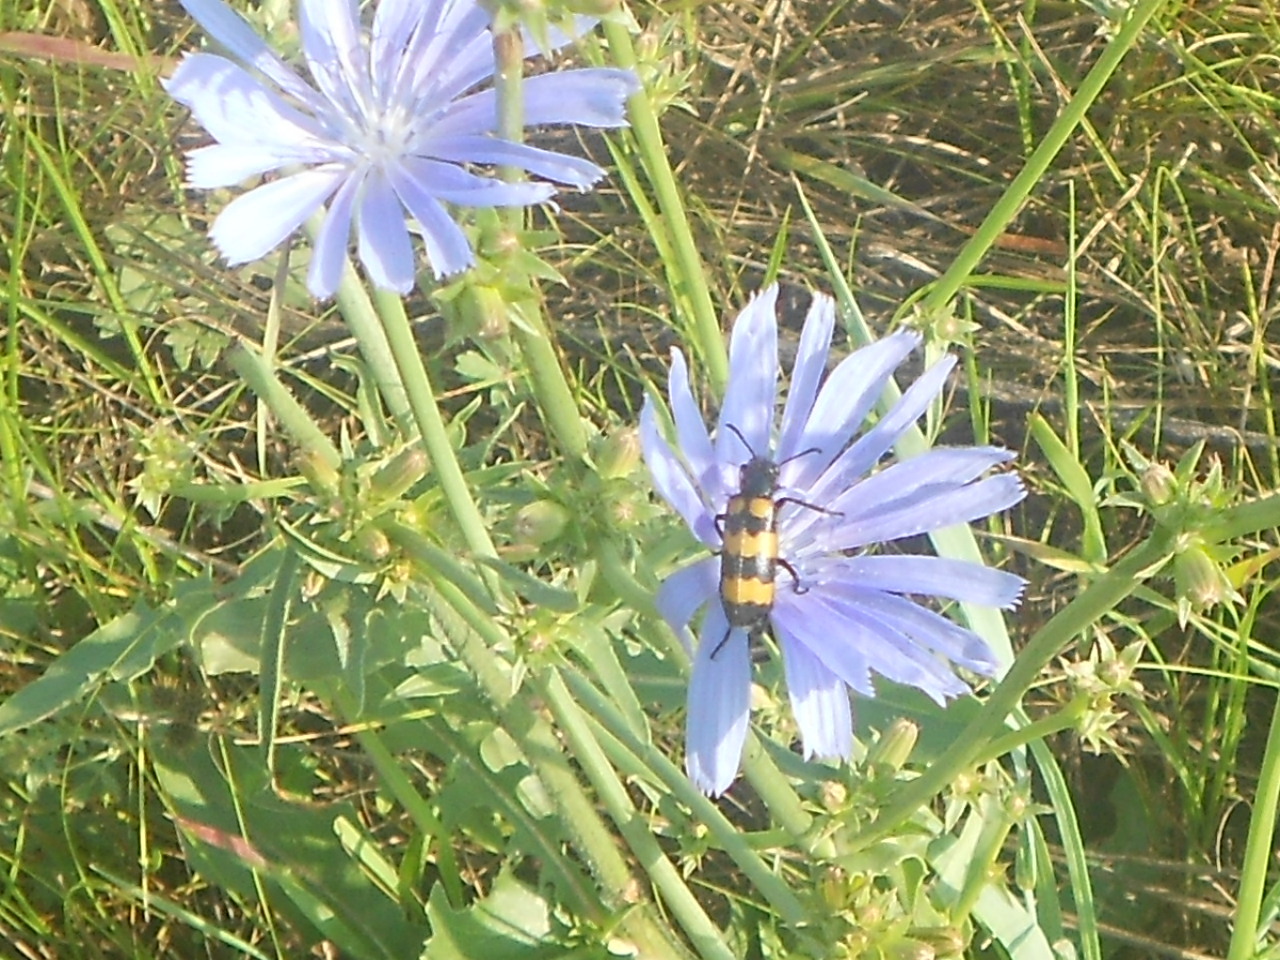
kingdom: Animalia
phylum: Arthropoda
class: Insecta
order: Coleoptera
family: Meloidae
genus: Mylabris
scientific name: Mylabris variabilis
